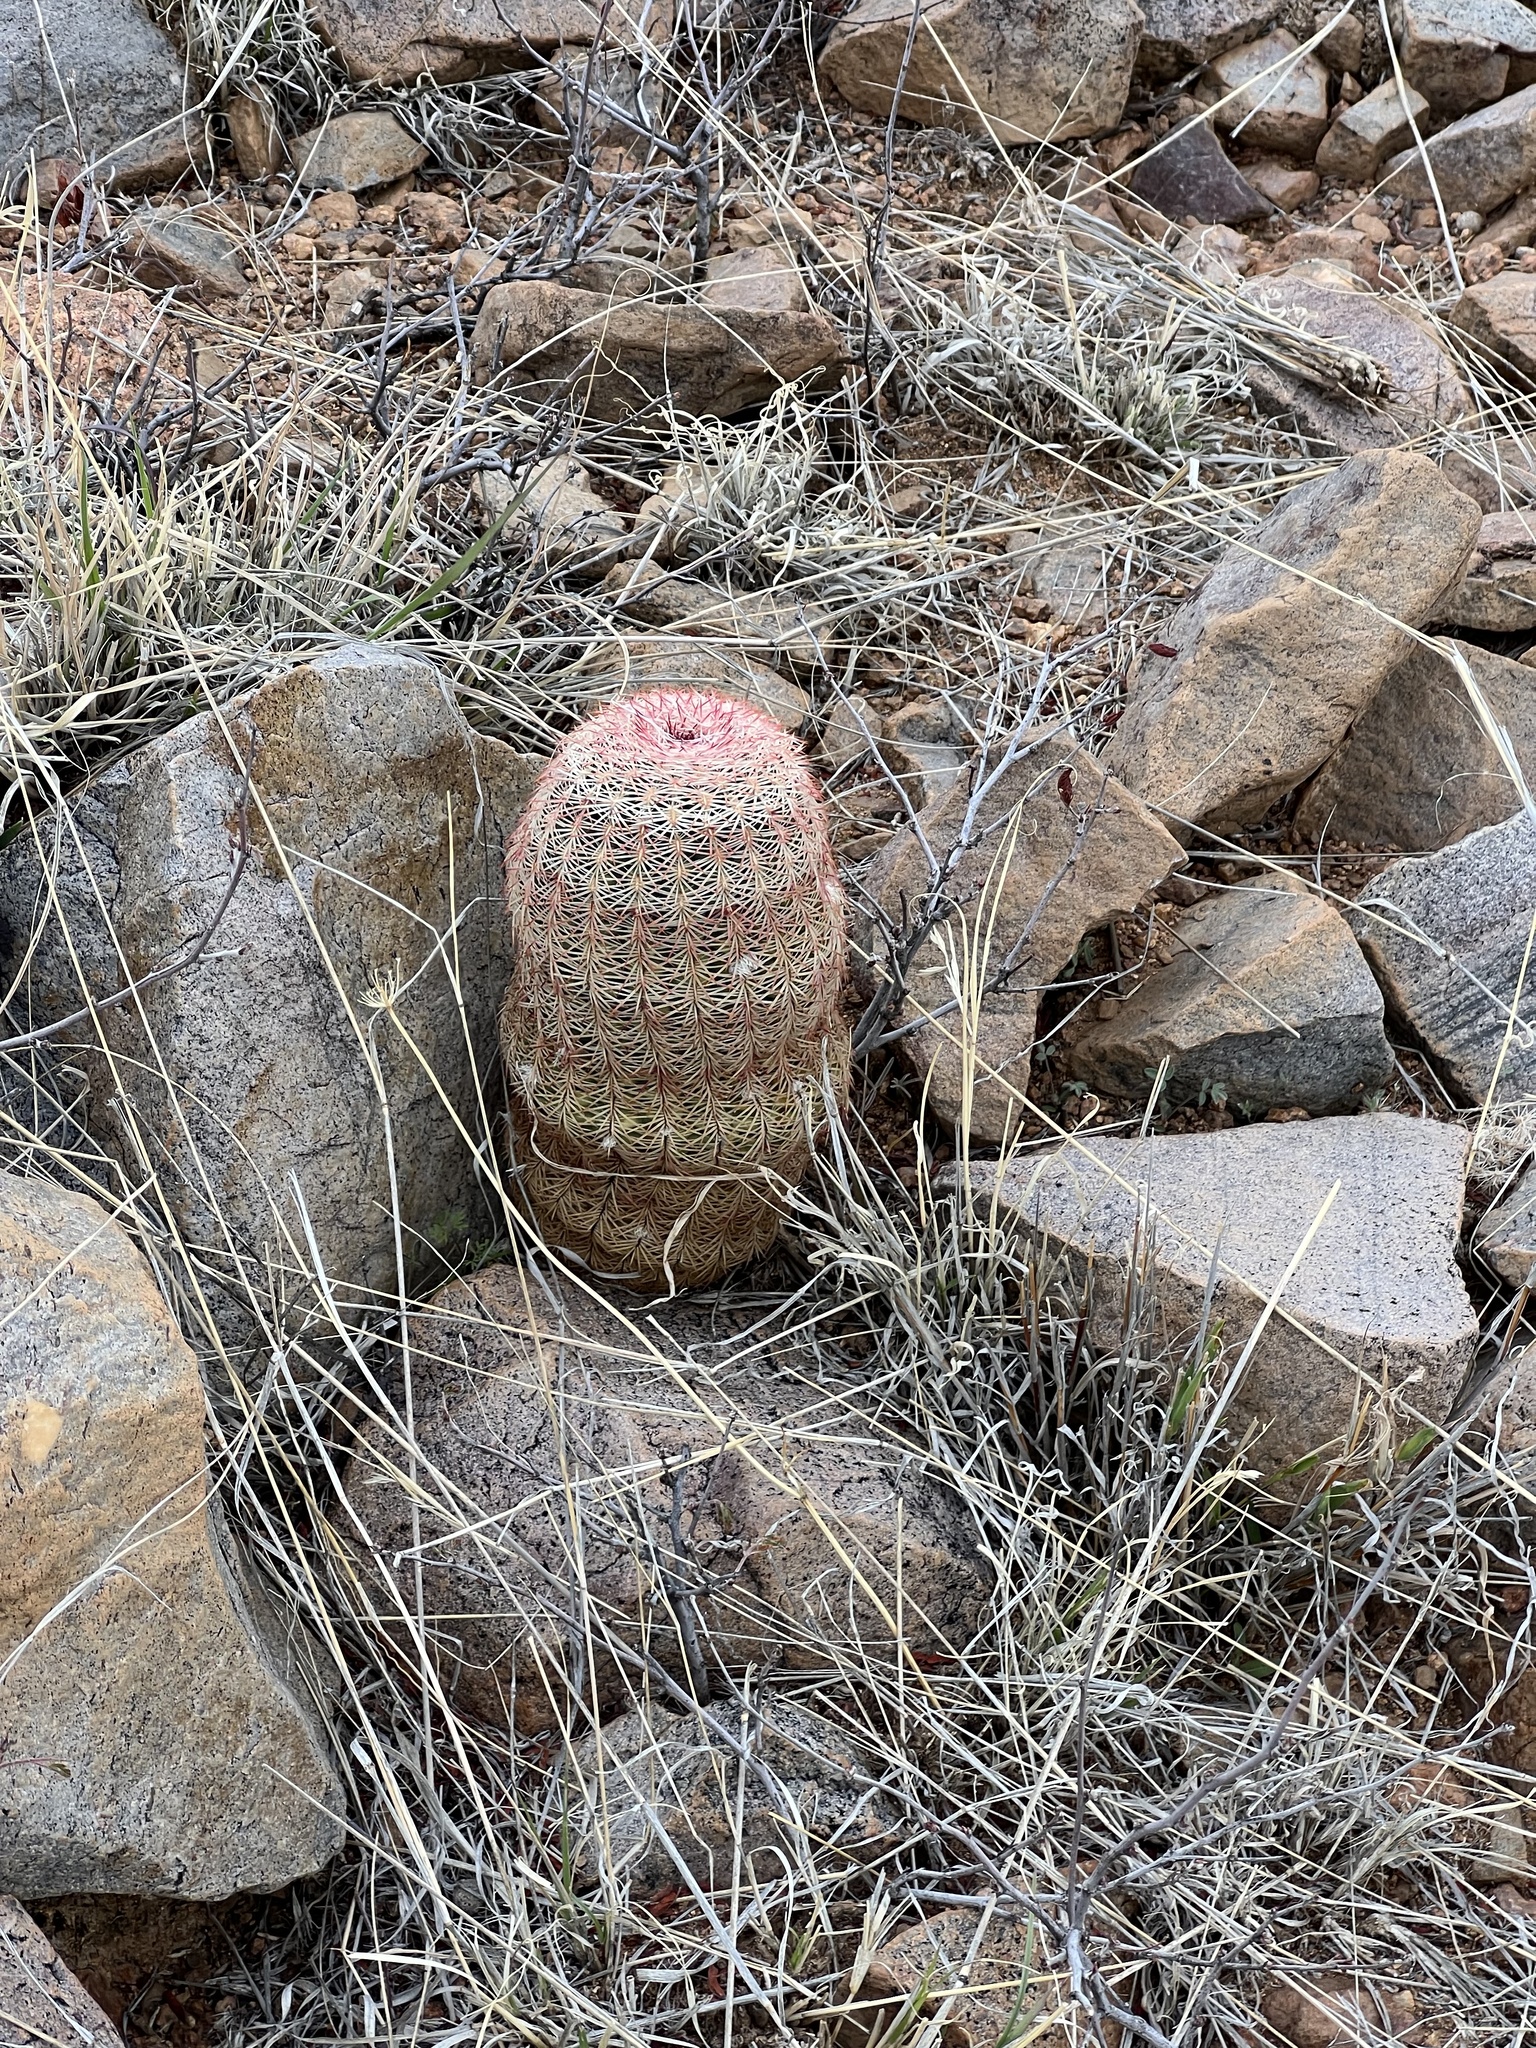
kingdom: Plantae
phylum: Tracheophyta
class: Magnoliopsida
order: Caryophyllales
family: Cactaceae
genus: Echinocereus
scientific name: Echinocereus rigidissimus
